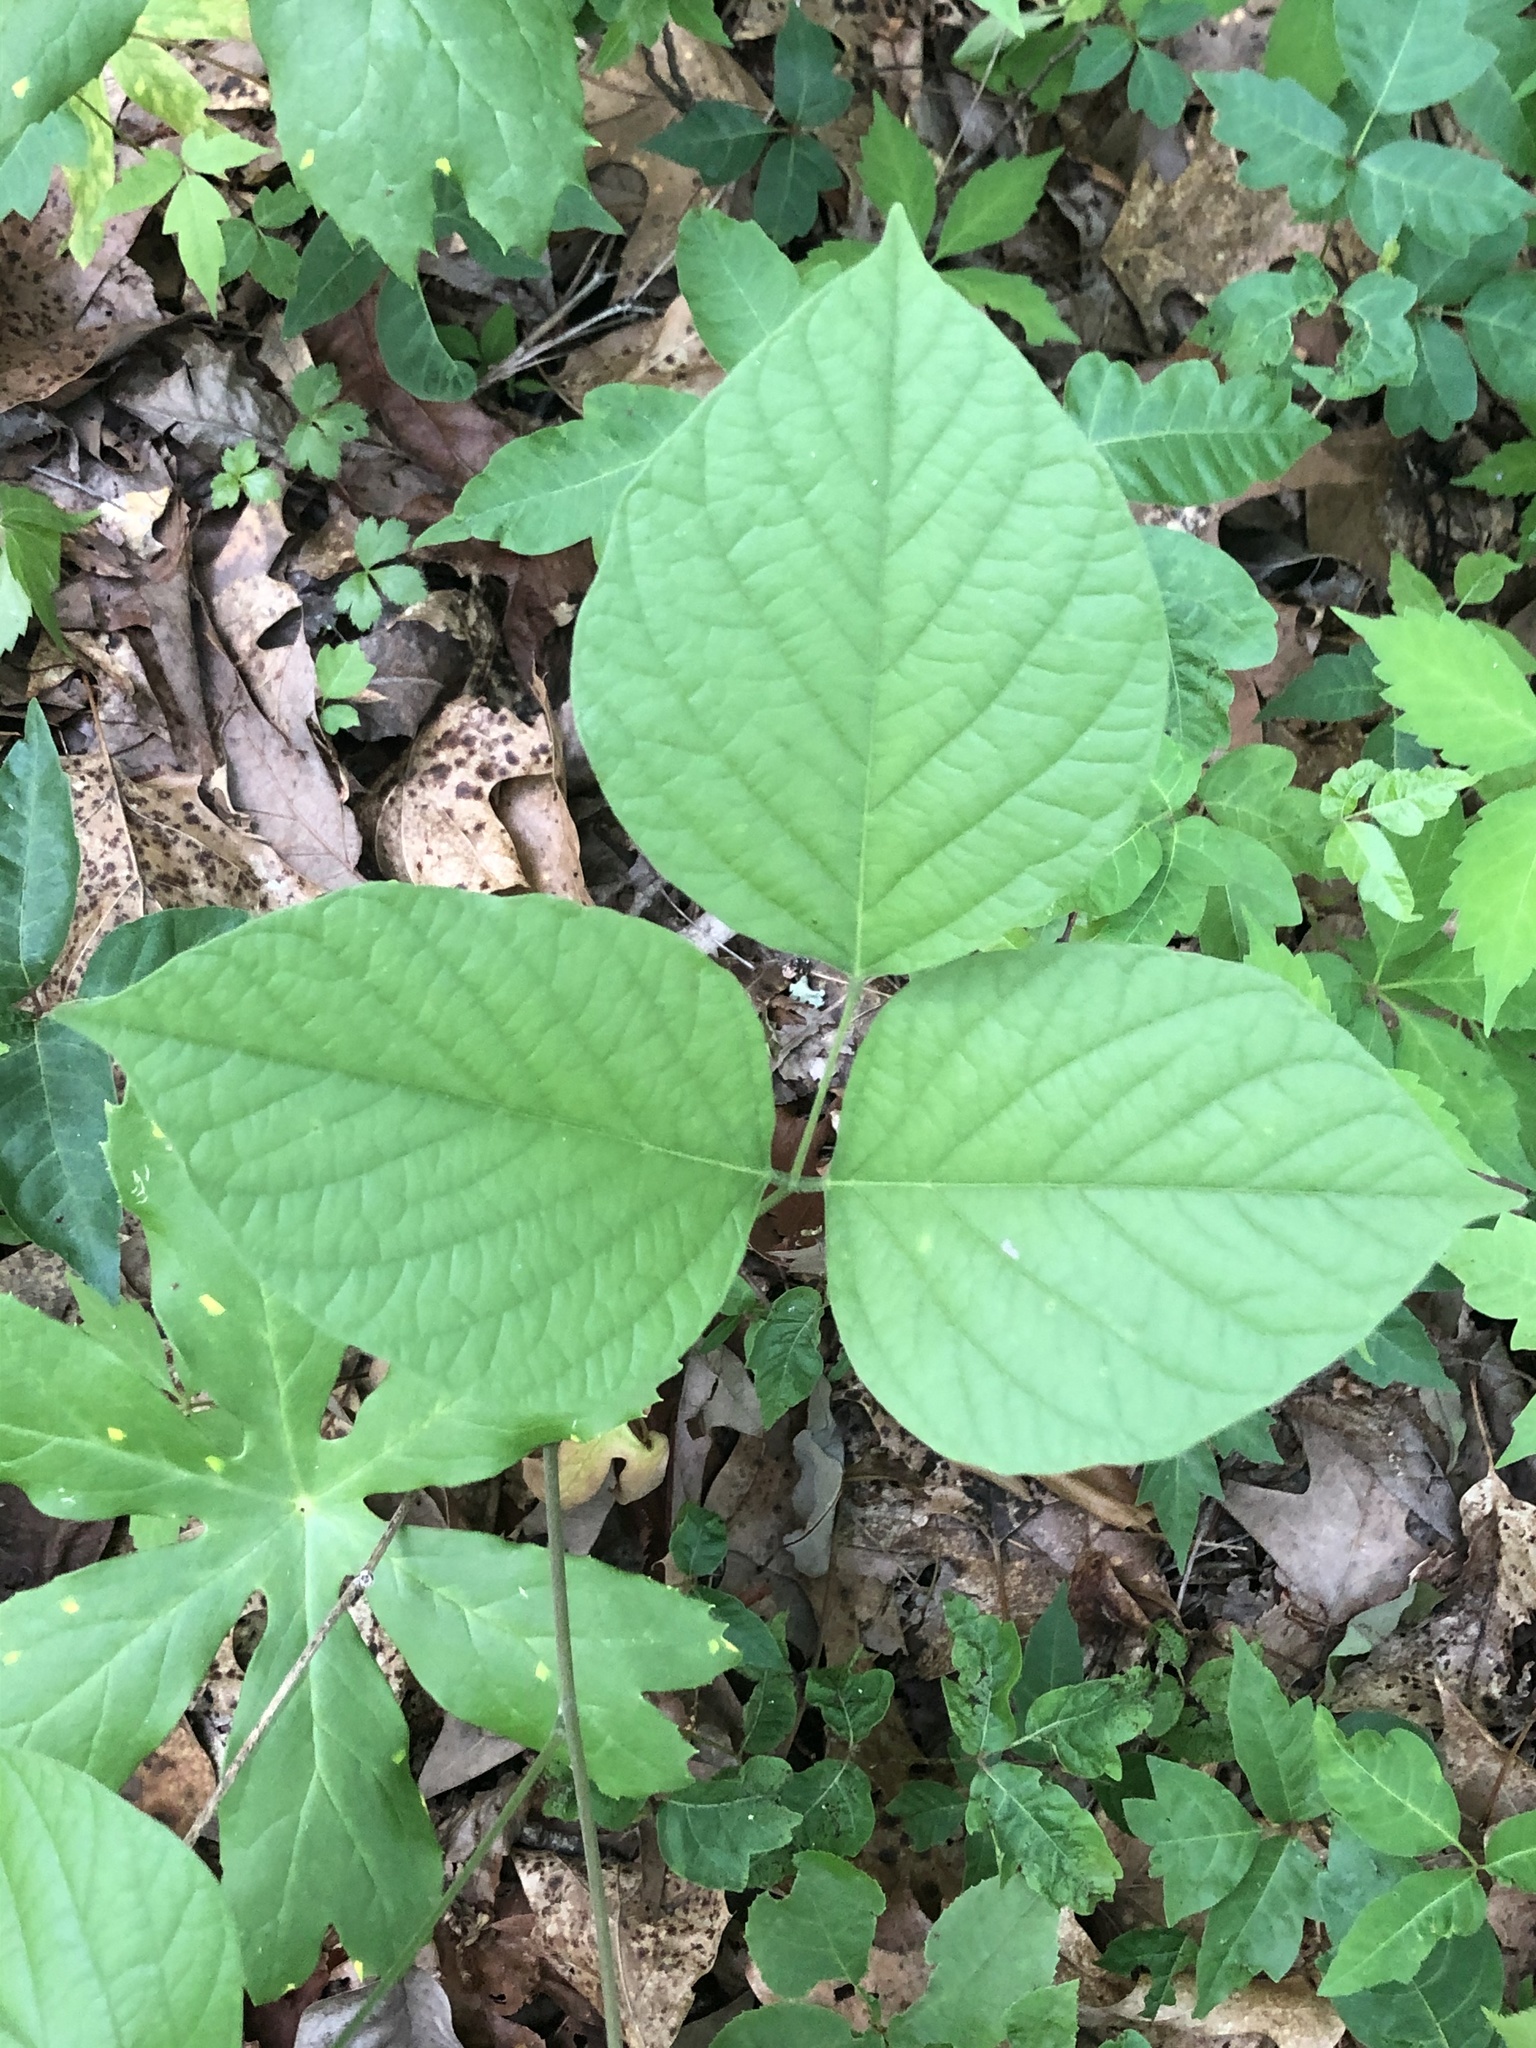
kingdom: Plantae
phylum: Tracheophyta
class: Magnoliopsida
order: Fabales
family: Fabaceae
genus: Lackeya
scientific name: Lackeya multiflora
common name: Boykin's clusterpea
